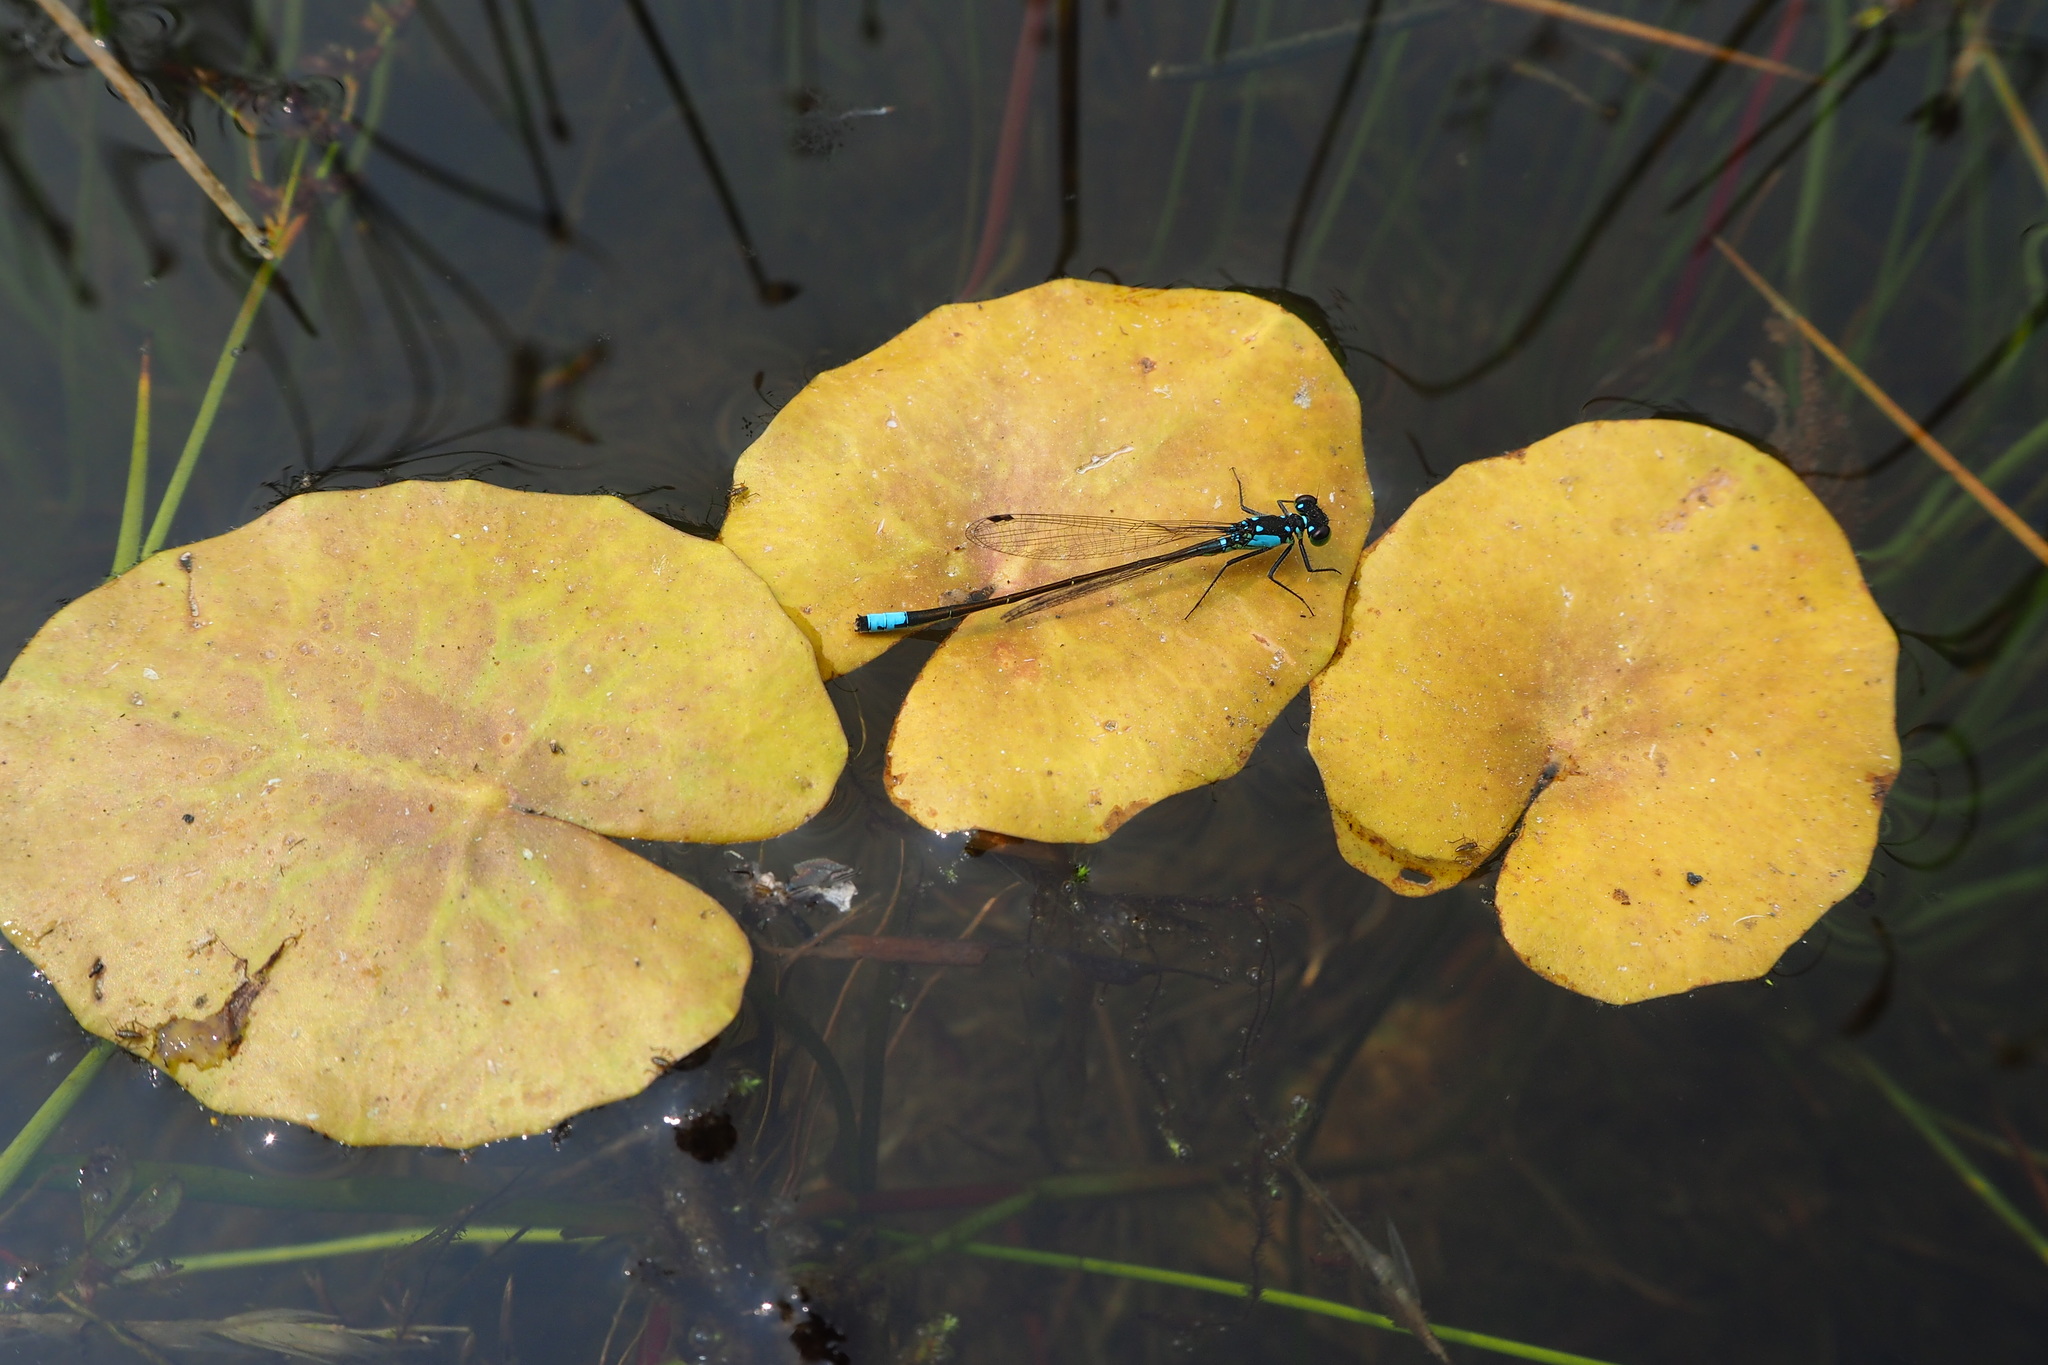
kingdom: Animalia
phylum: Arthropoda
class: Insecta
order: Odonata
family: Coenagrionidae
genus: Ischnura
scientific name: Ischnura cervula
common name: Pacific forktail
